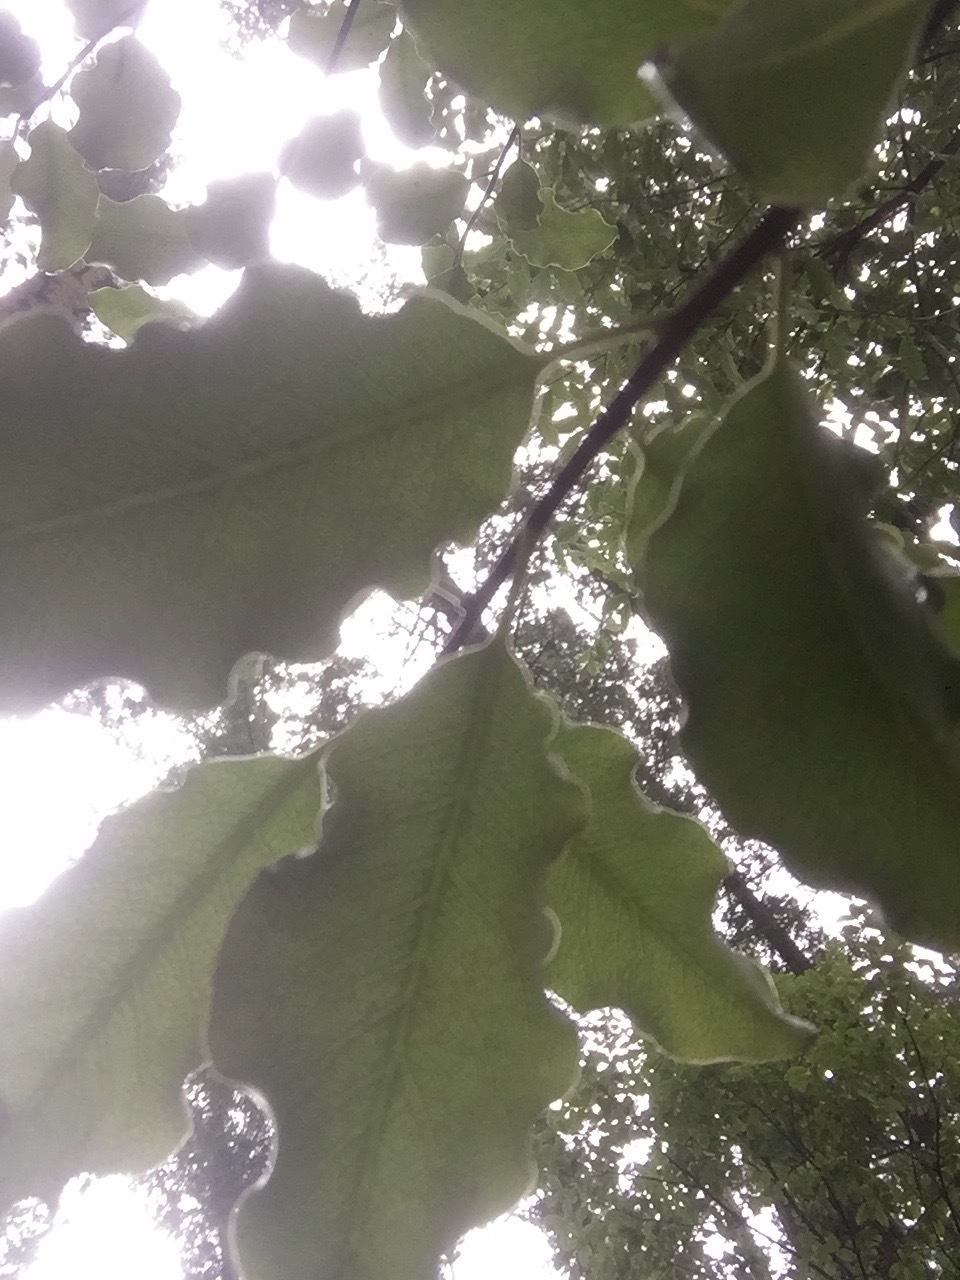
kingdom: Plantae
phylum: Tracheophyta
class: Magnoliopsida
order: Apiales
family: Pittosporaceae
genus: Pittosporum
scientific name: Pittosporum tenuifolium
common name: Kohuhu
